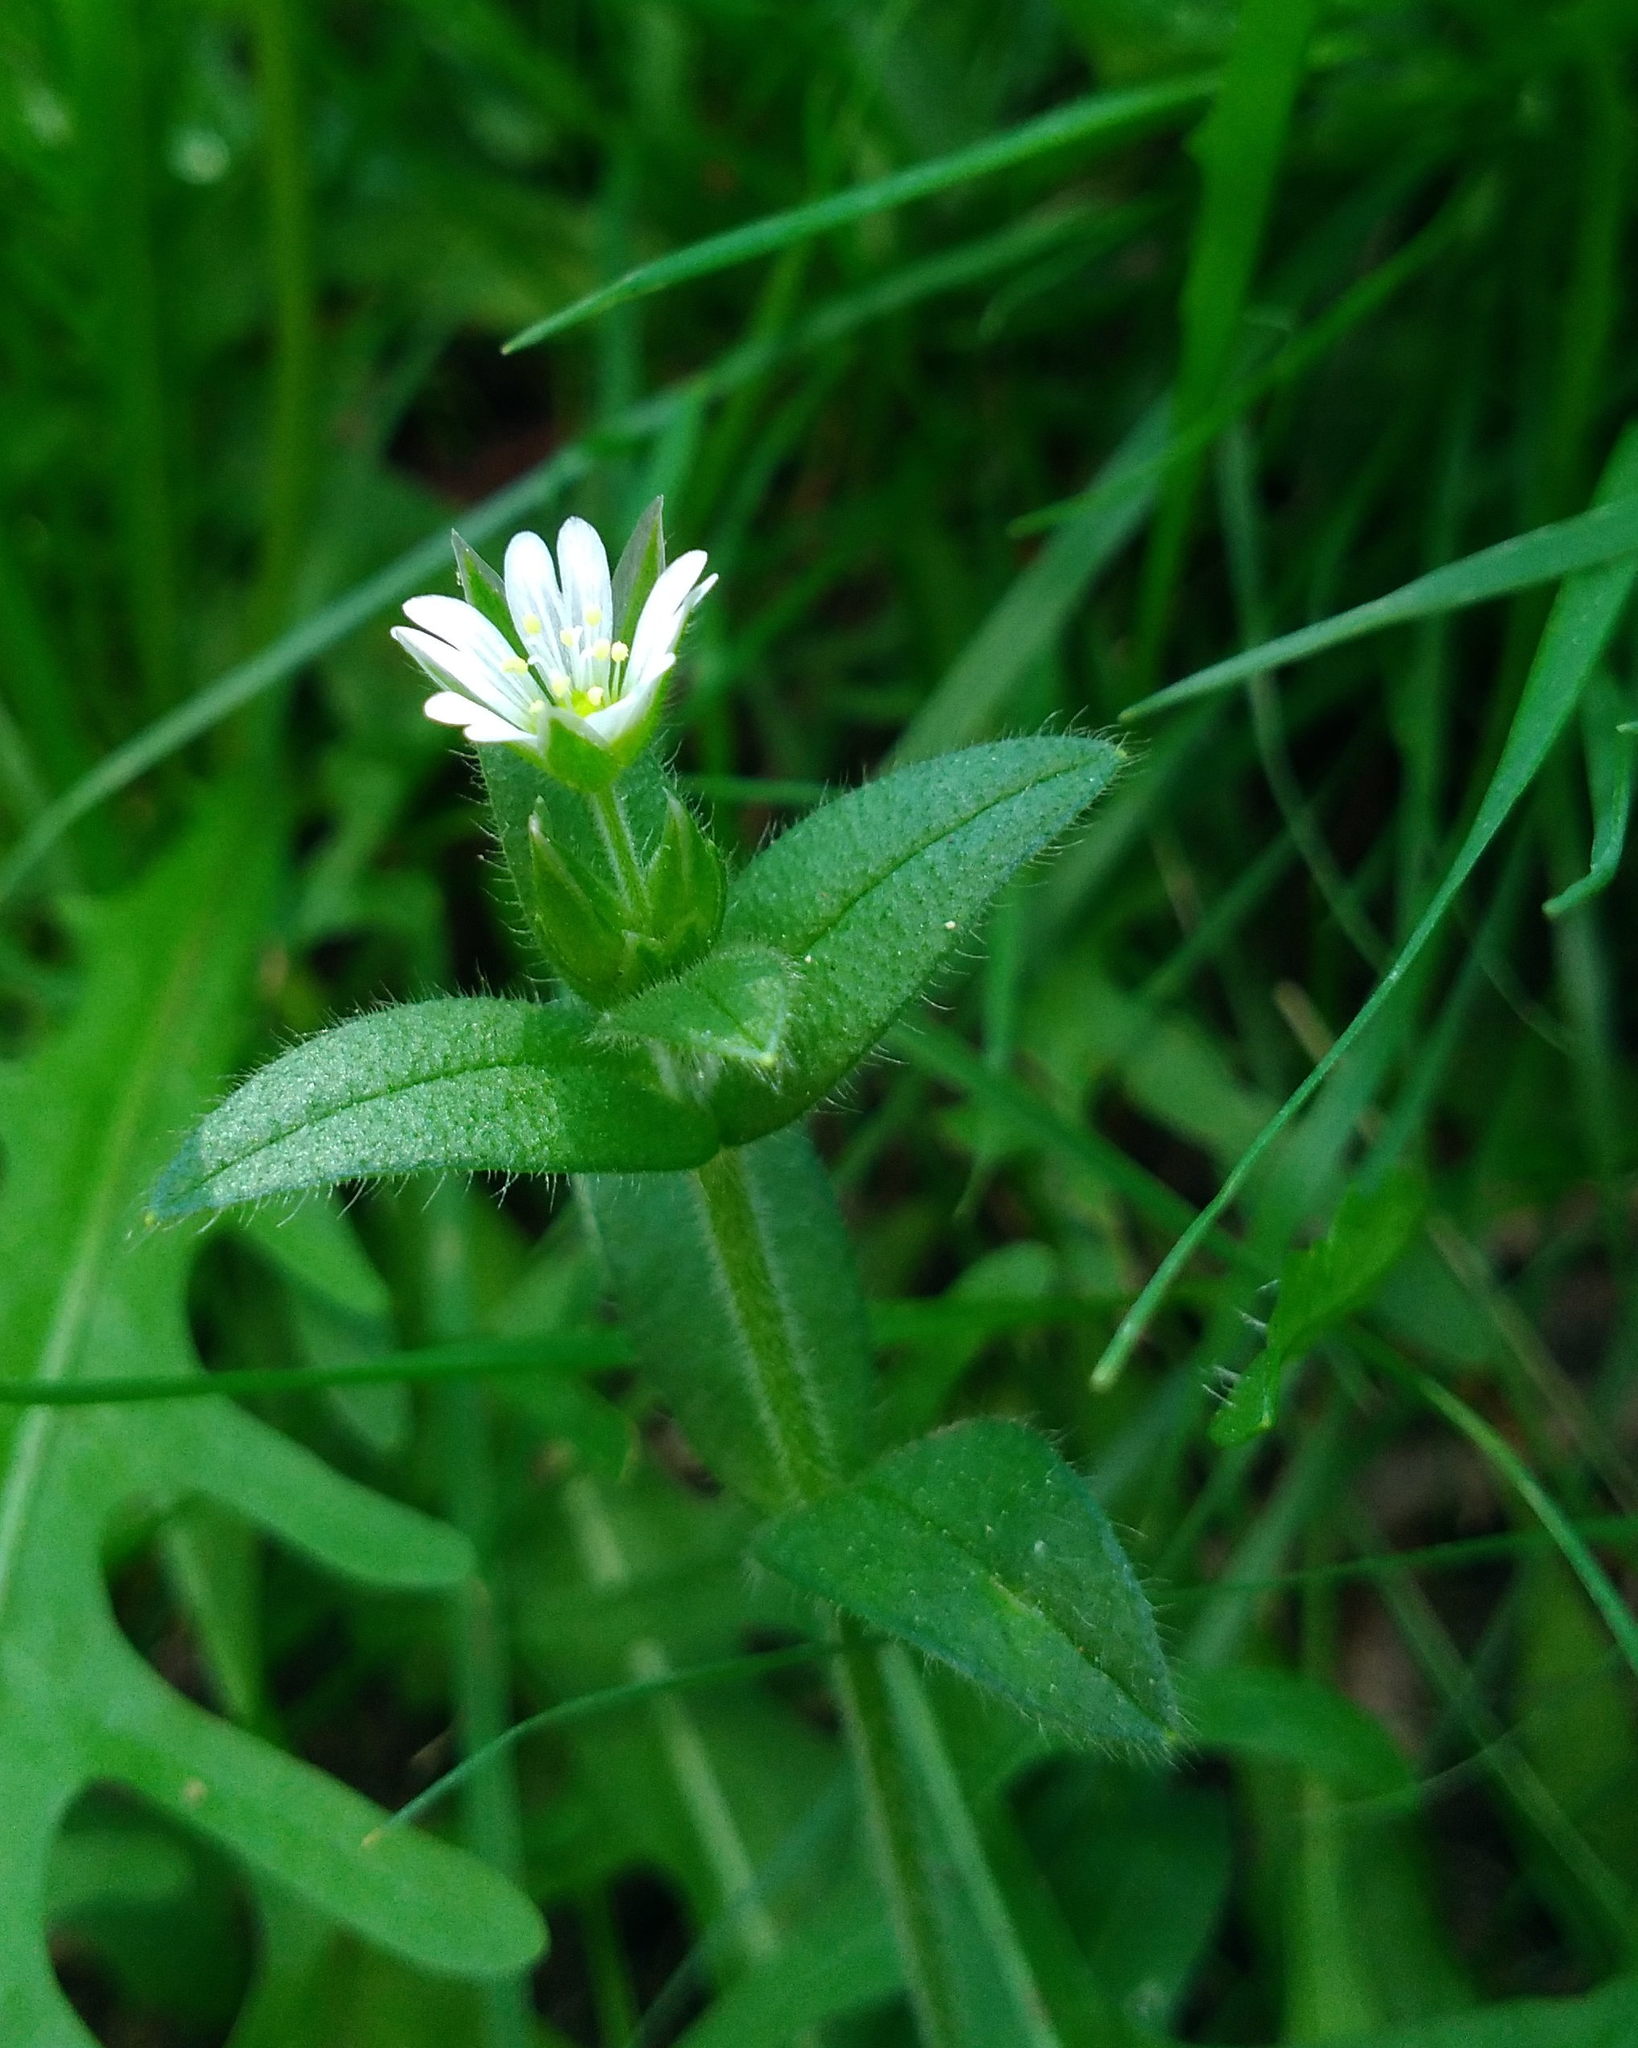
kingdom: Plantae
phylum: Tracheophyta
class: Magnoliopsida
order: Caryophyllales
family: Caryophyllaceae
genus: Cerastium
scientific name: Cerastium fontanum
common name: Common mouse-ear
